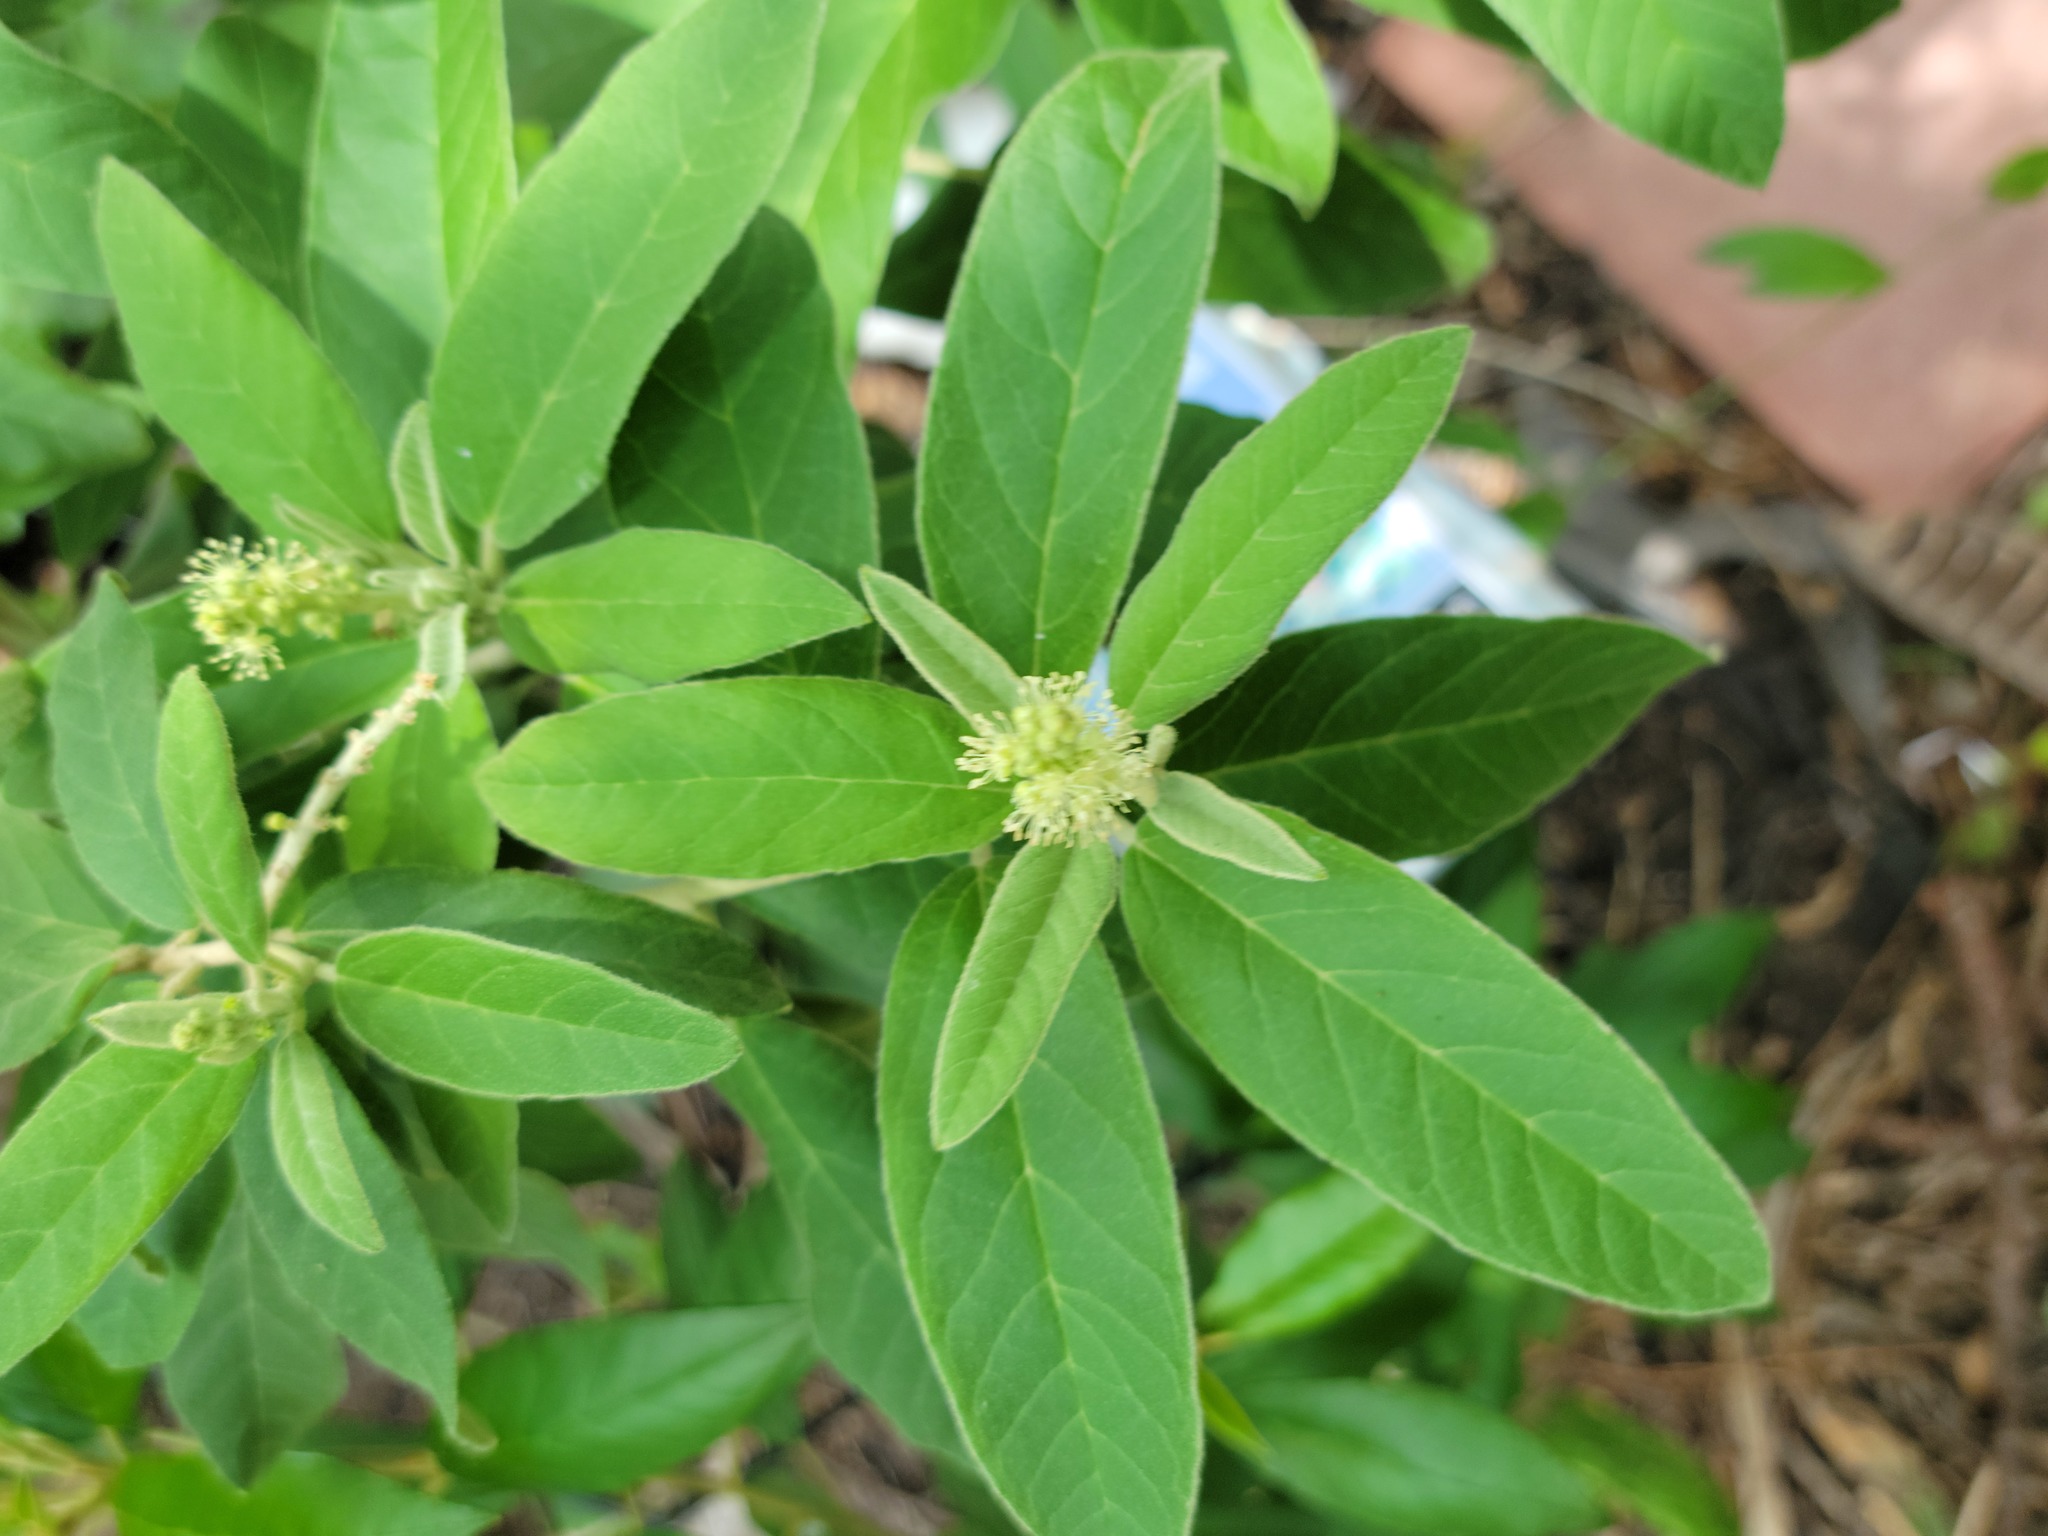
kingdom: Plantae
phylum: Tracheophyta
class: Magnoliopsida
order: Malpighiales
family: Euphorbiaceae
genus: Croton
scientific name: Croton incanus
